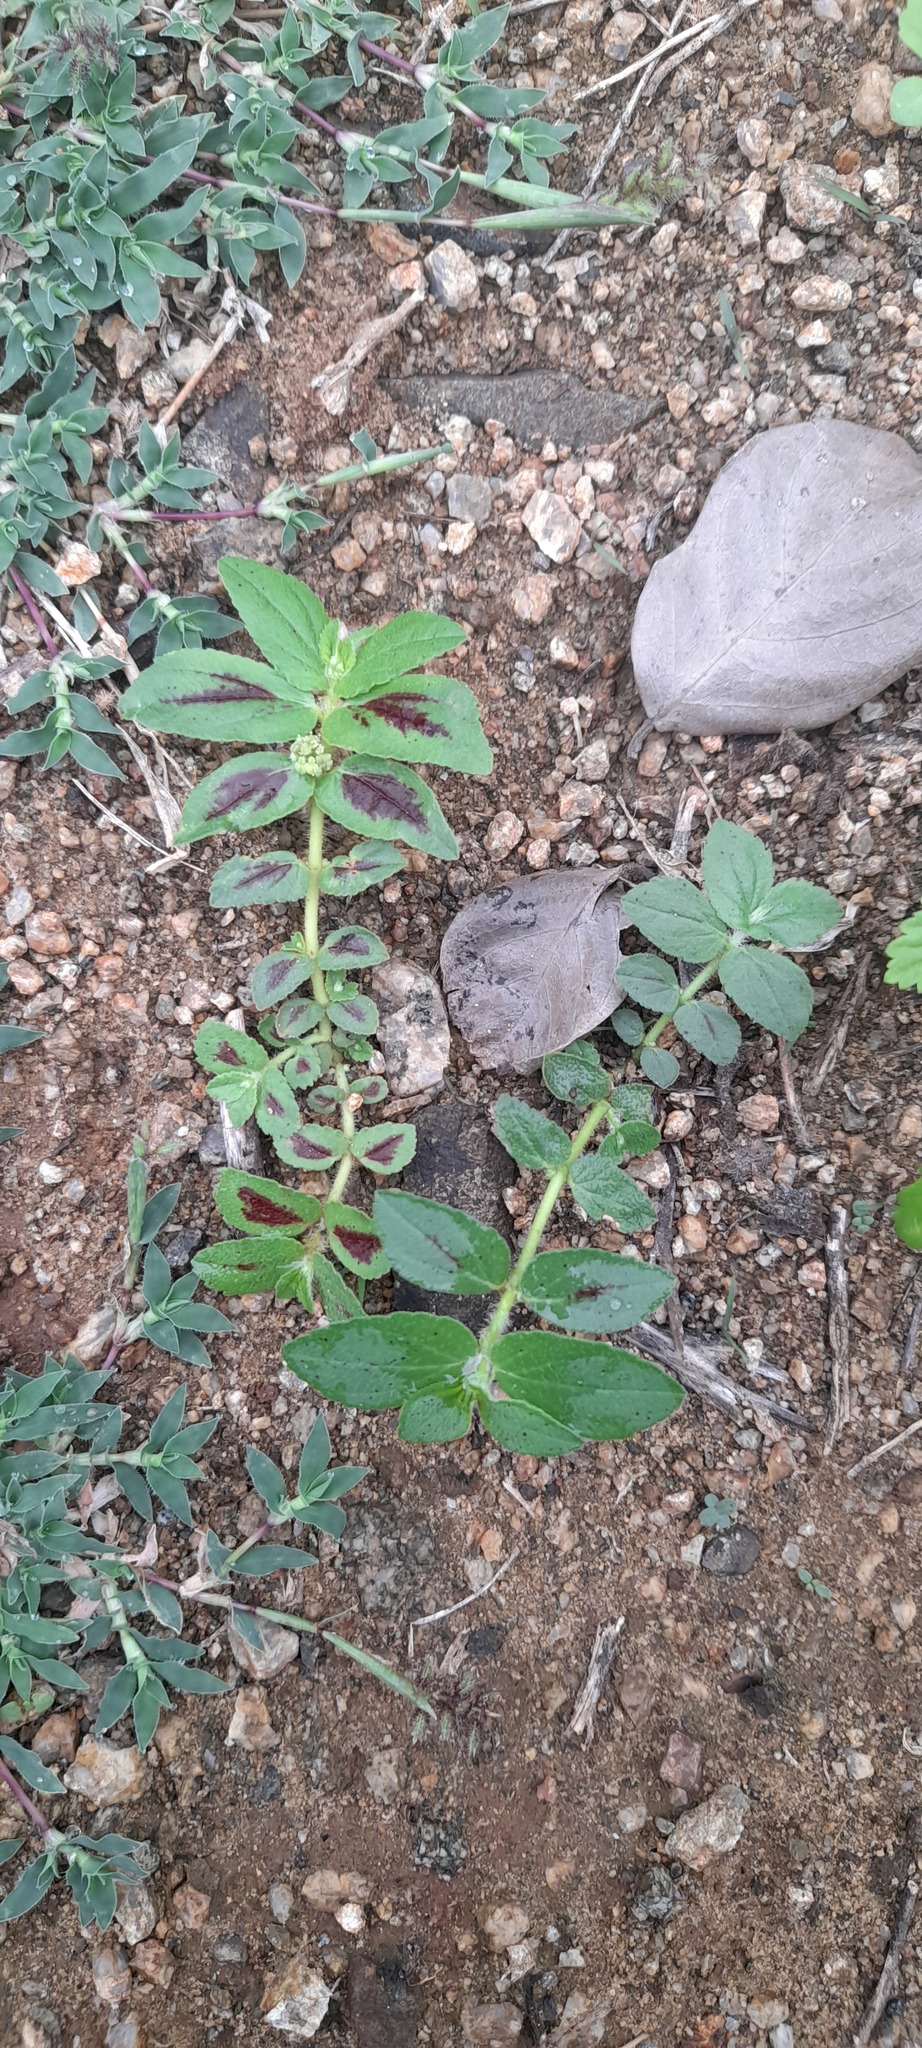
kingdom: Plantae
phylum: Tracheophyta
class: Magnoliopsida
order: Malpighiales
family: Euphorbiaceae
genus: Euphorbia
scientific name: Euphorbia hirta
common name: Pillpod sandmat
